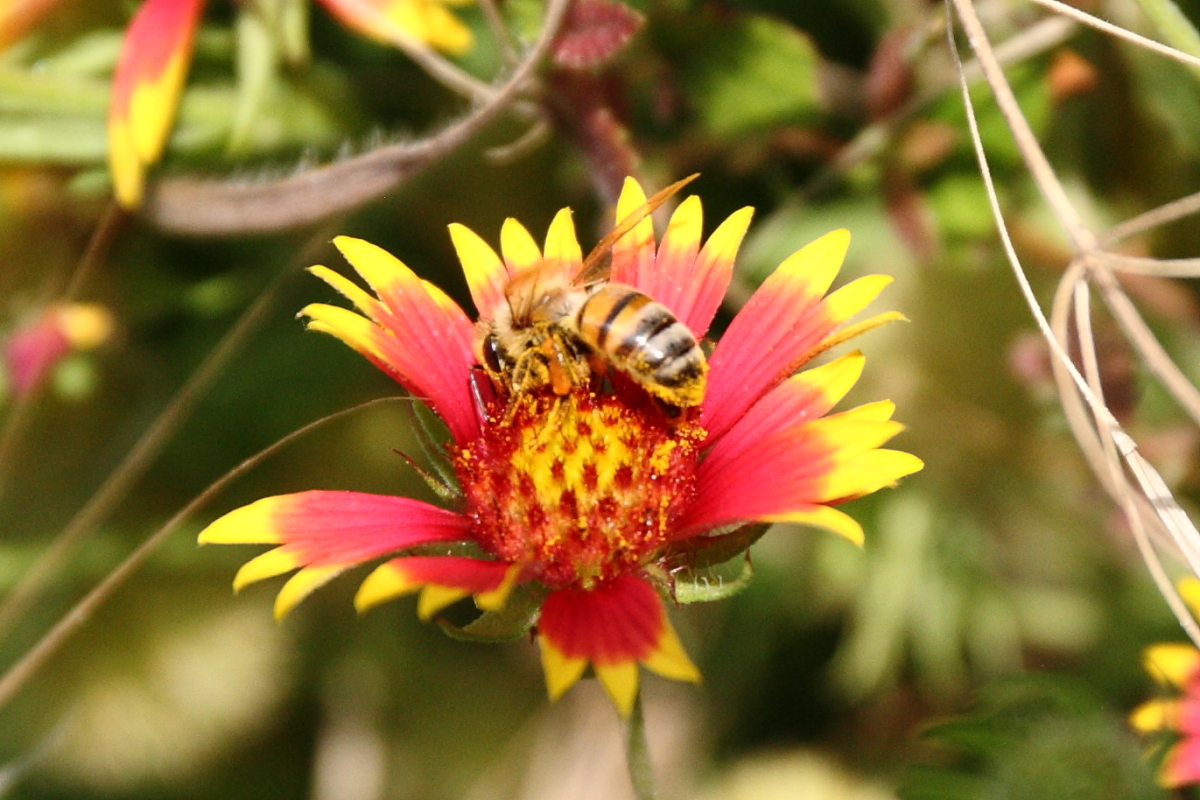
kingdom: Animalia
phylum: Arthropoda
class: Insecta
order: Hymenoptera
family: Apidae
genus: Apis
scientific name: Apis mellifera
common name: Honey bee
